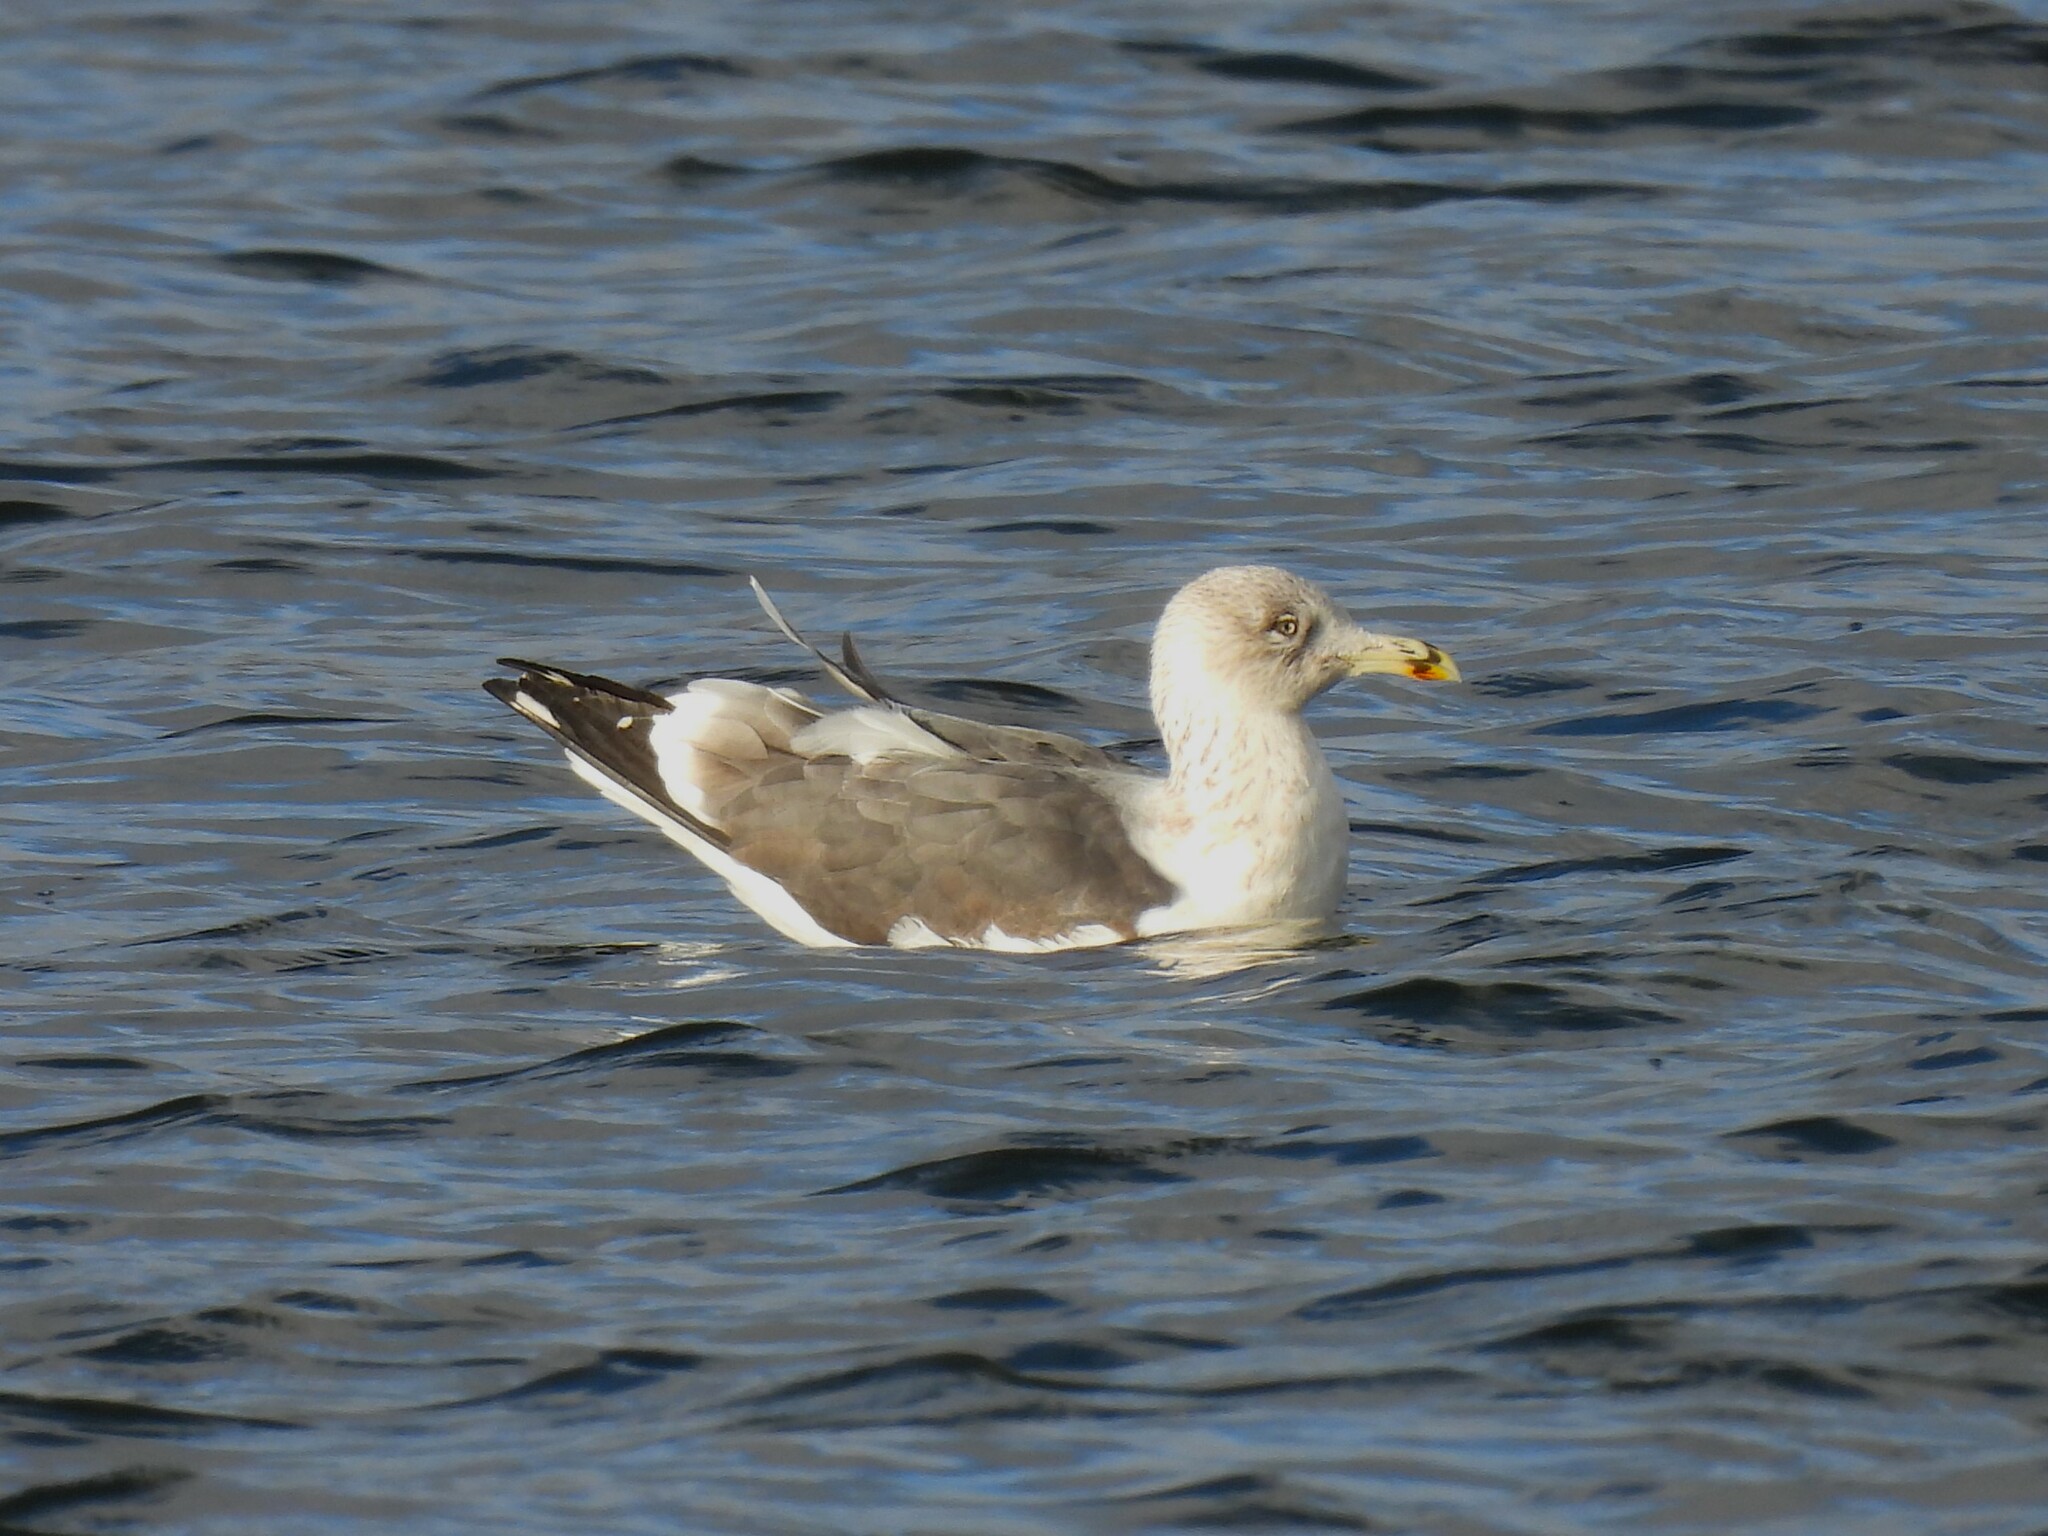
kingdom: Animalia
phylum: Chordata
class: Aves
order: Charadriiformes
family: Laridae
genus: Larus
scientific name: Larus argentatus
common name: Herring gull
